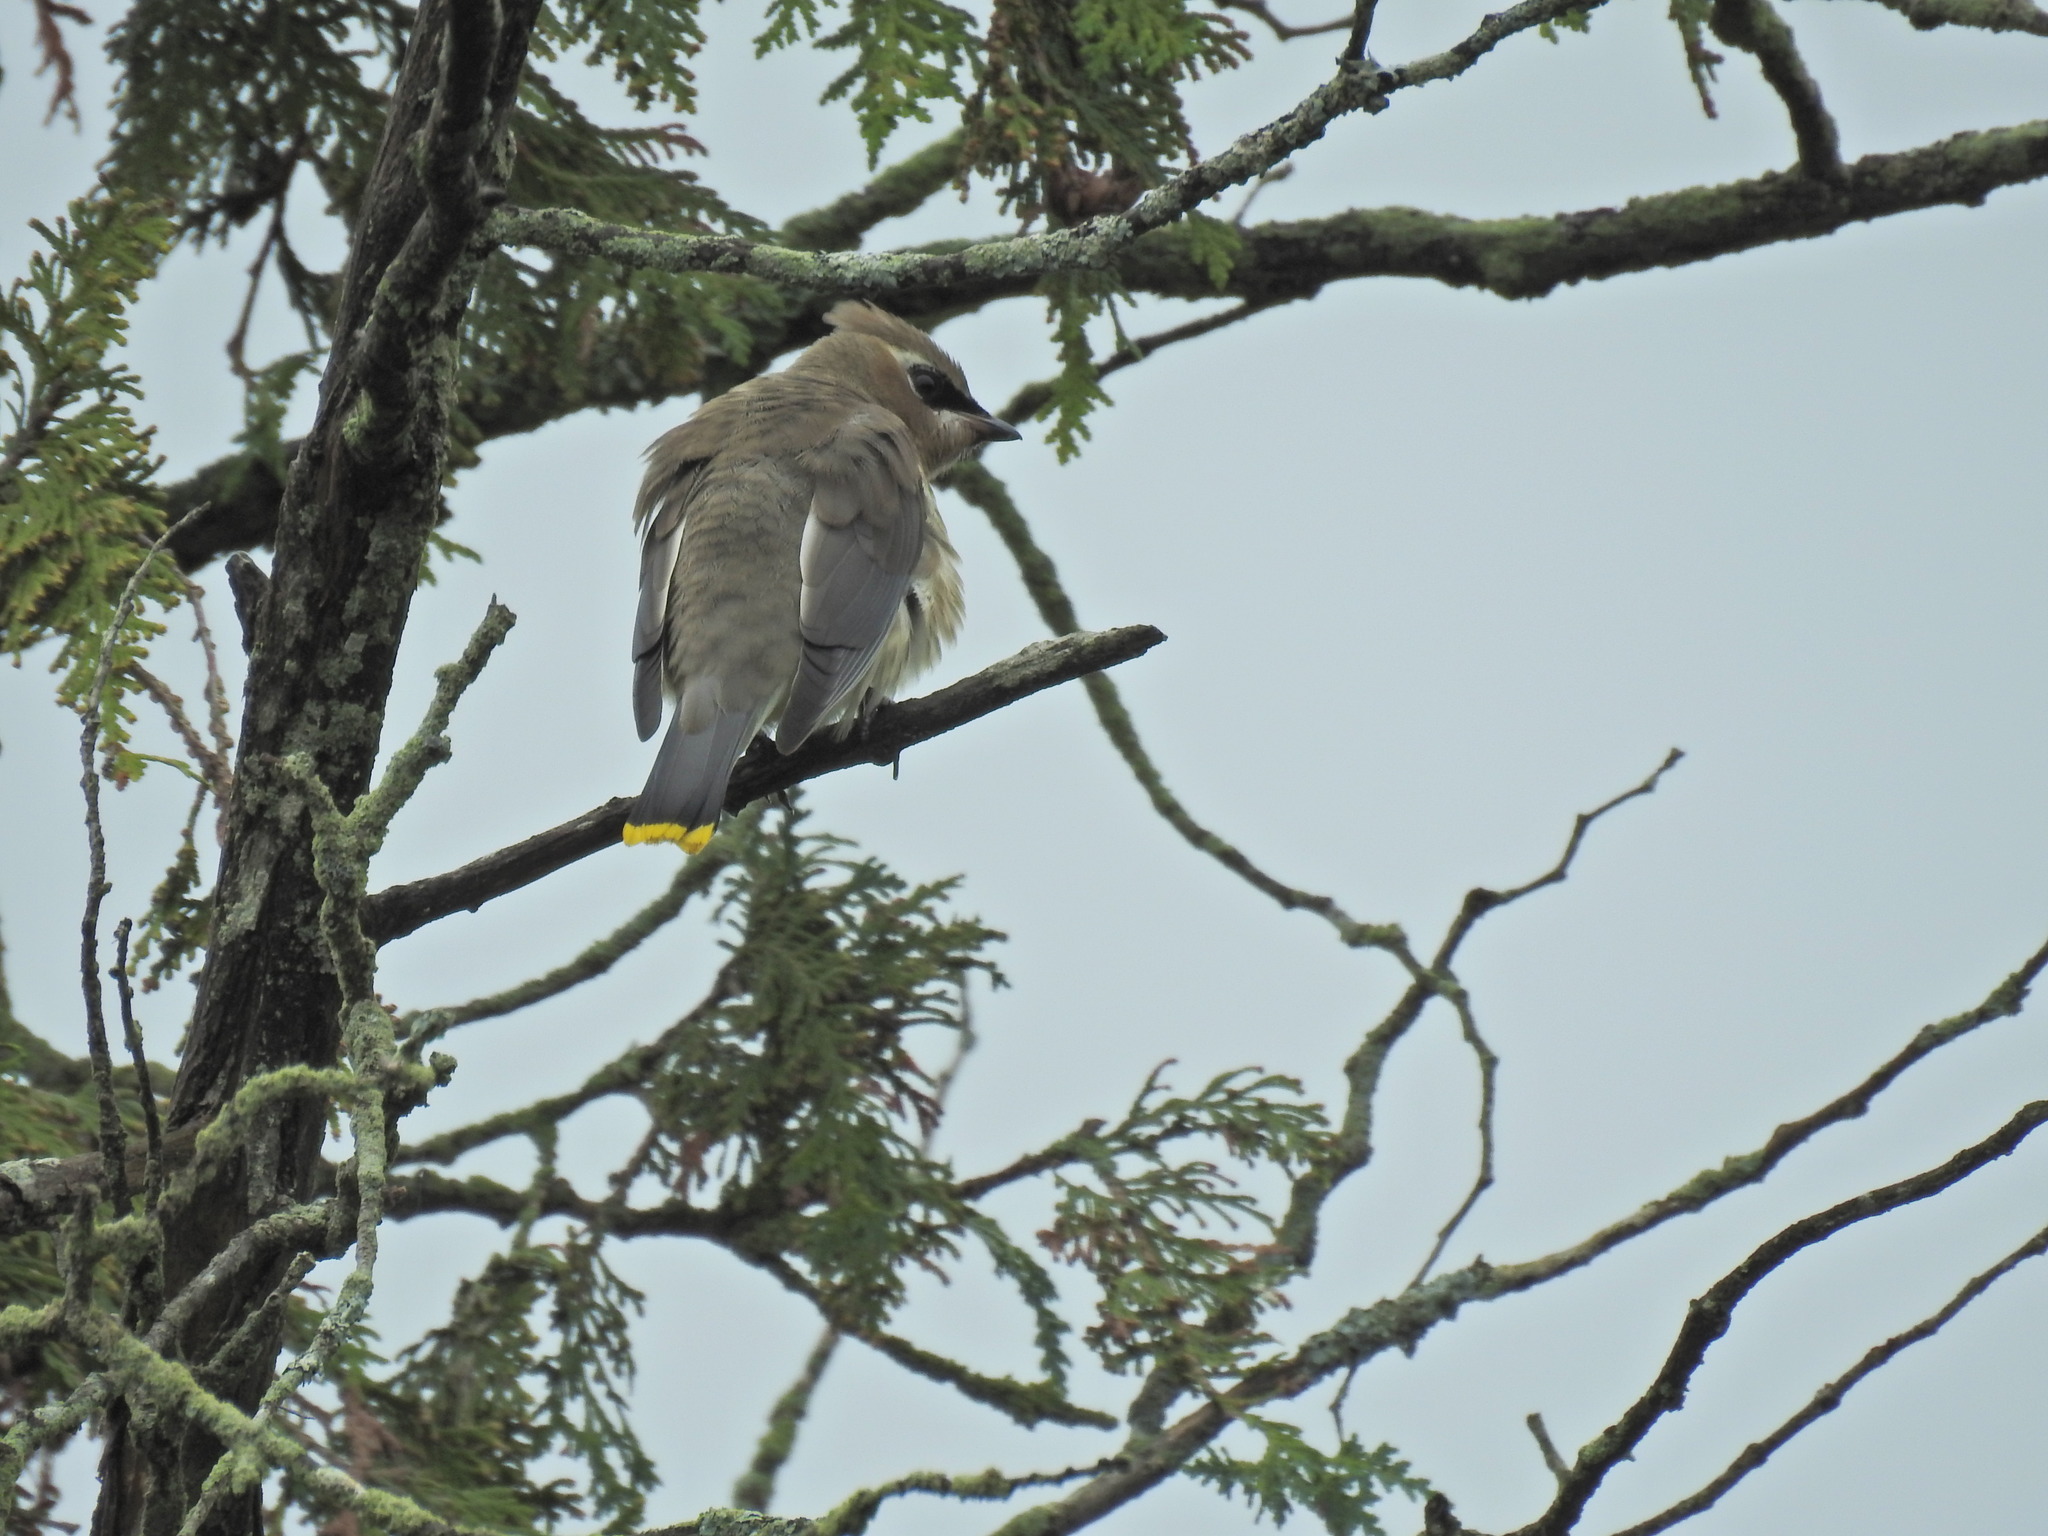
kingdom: Animalia
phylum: Chordata
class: Aves
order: Passeriformes
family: Bombycillidae
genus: Bombycilla
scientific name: Bombycilla cedrorum
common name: Cedar waxwing
